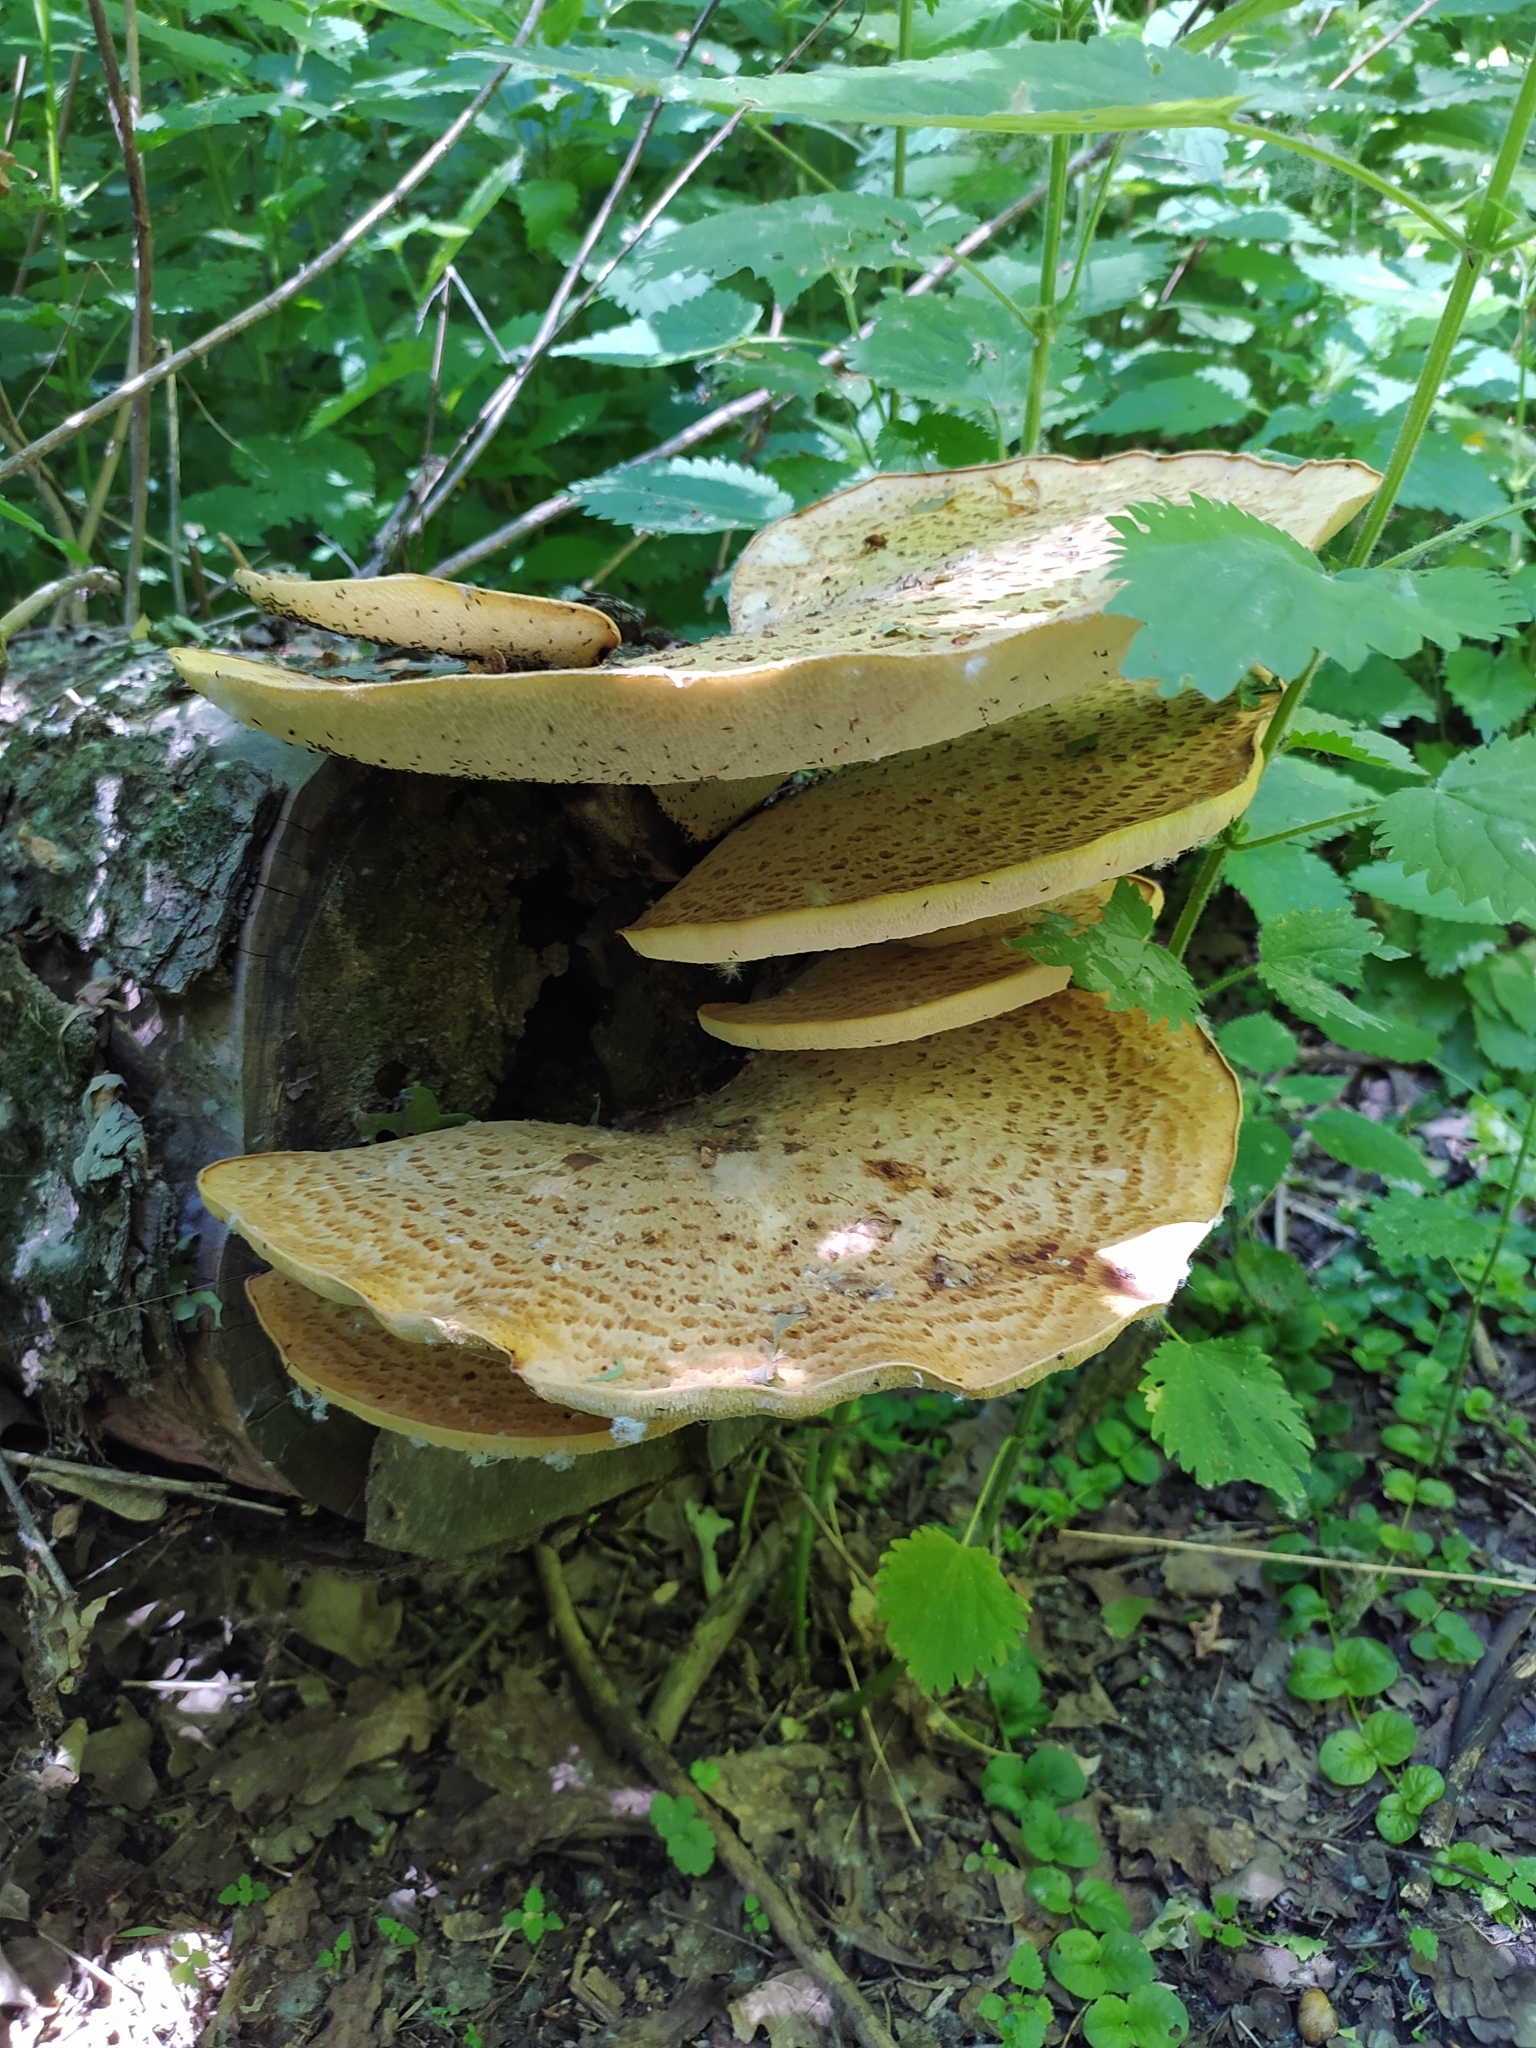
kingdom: Fungi
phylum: Basidiomycota
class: Agaricomycetes
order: Polyporales
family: Polyporaceae
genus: Cerioporus
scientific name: Cerioporus squamosus
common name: Dryad's saddle
